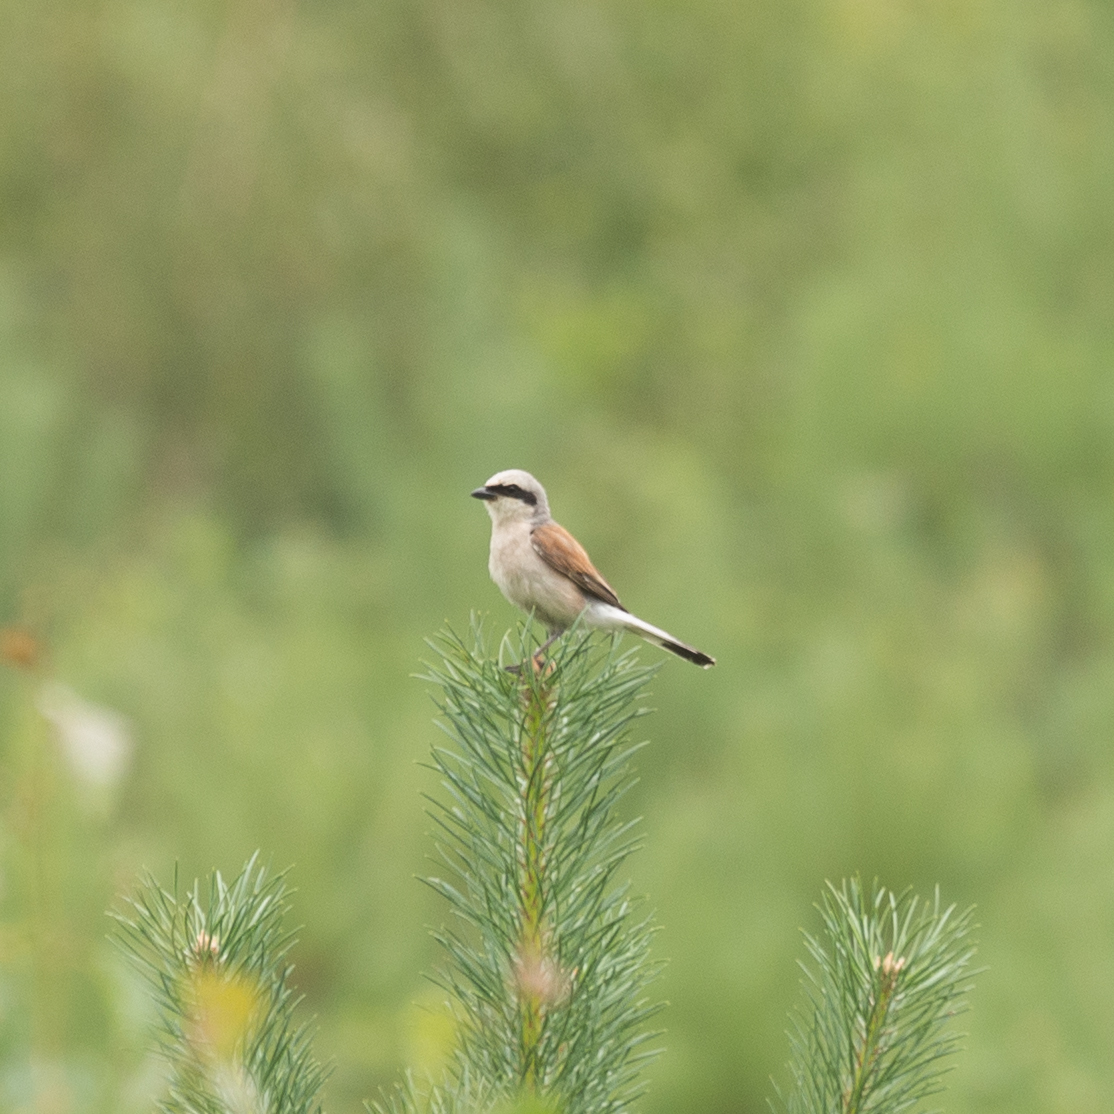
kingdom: Animalia
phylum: Chordata
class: Aves
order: Passeriformes
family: Laniidae
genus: Lanius
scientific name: Lanius collurio
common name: Red-backed shrike
